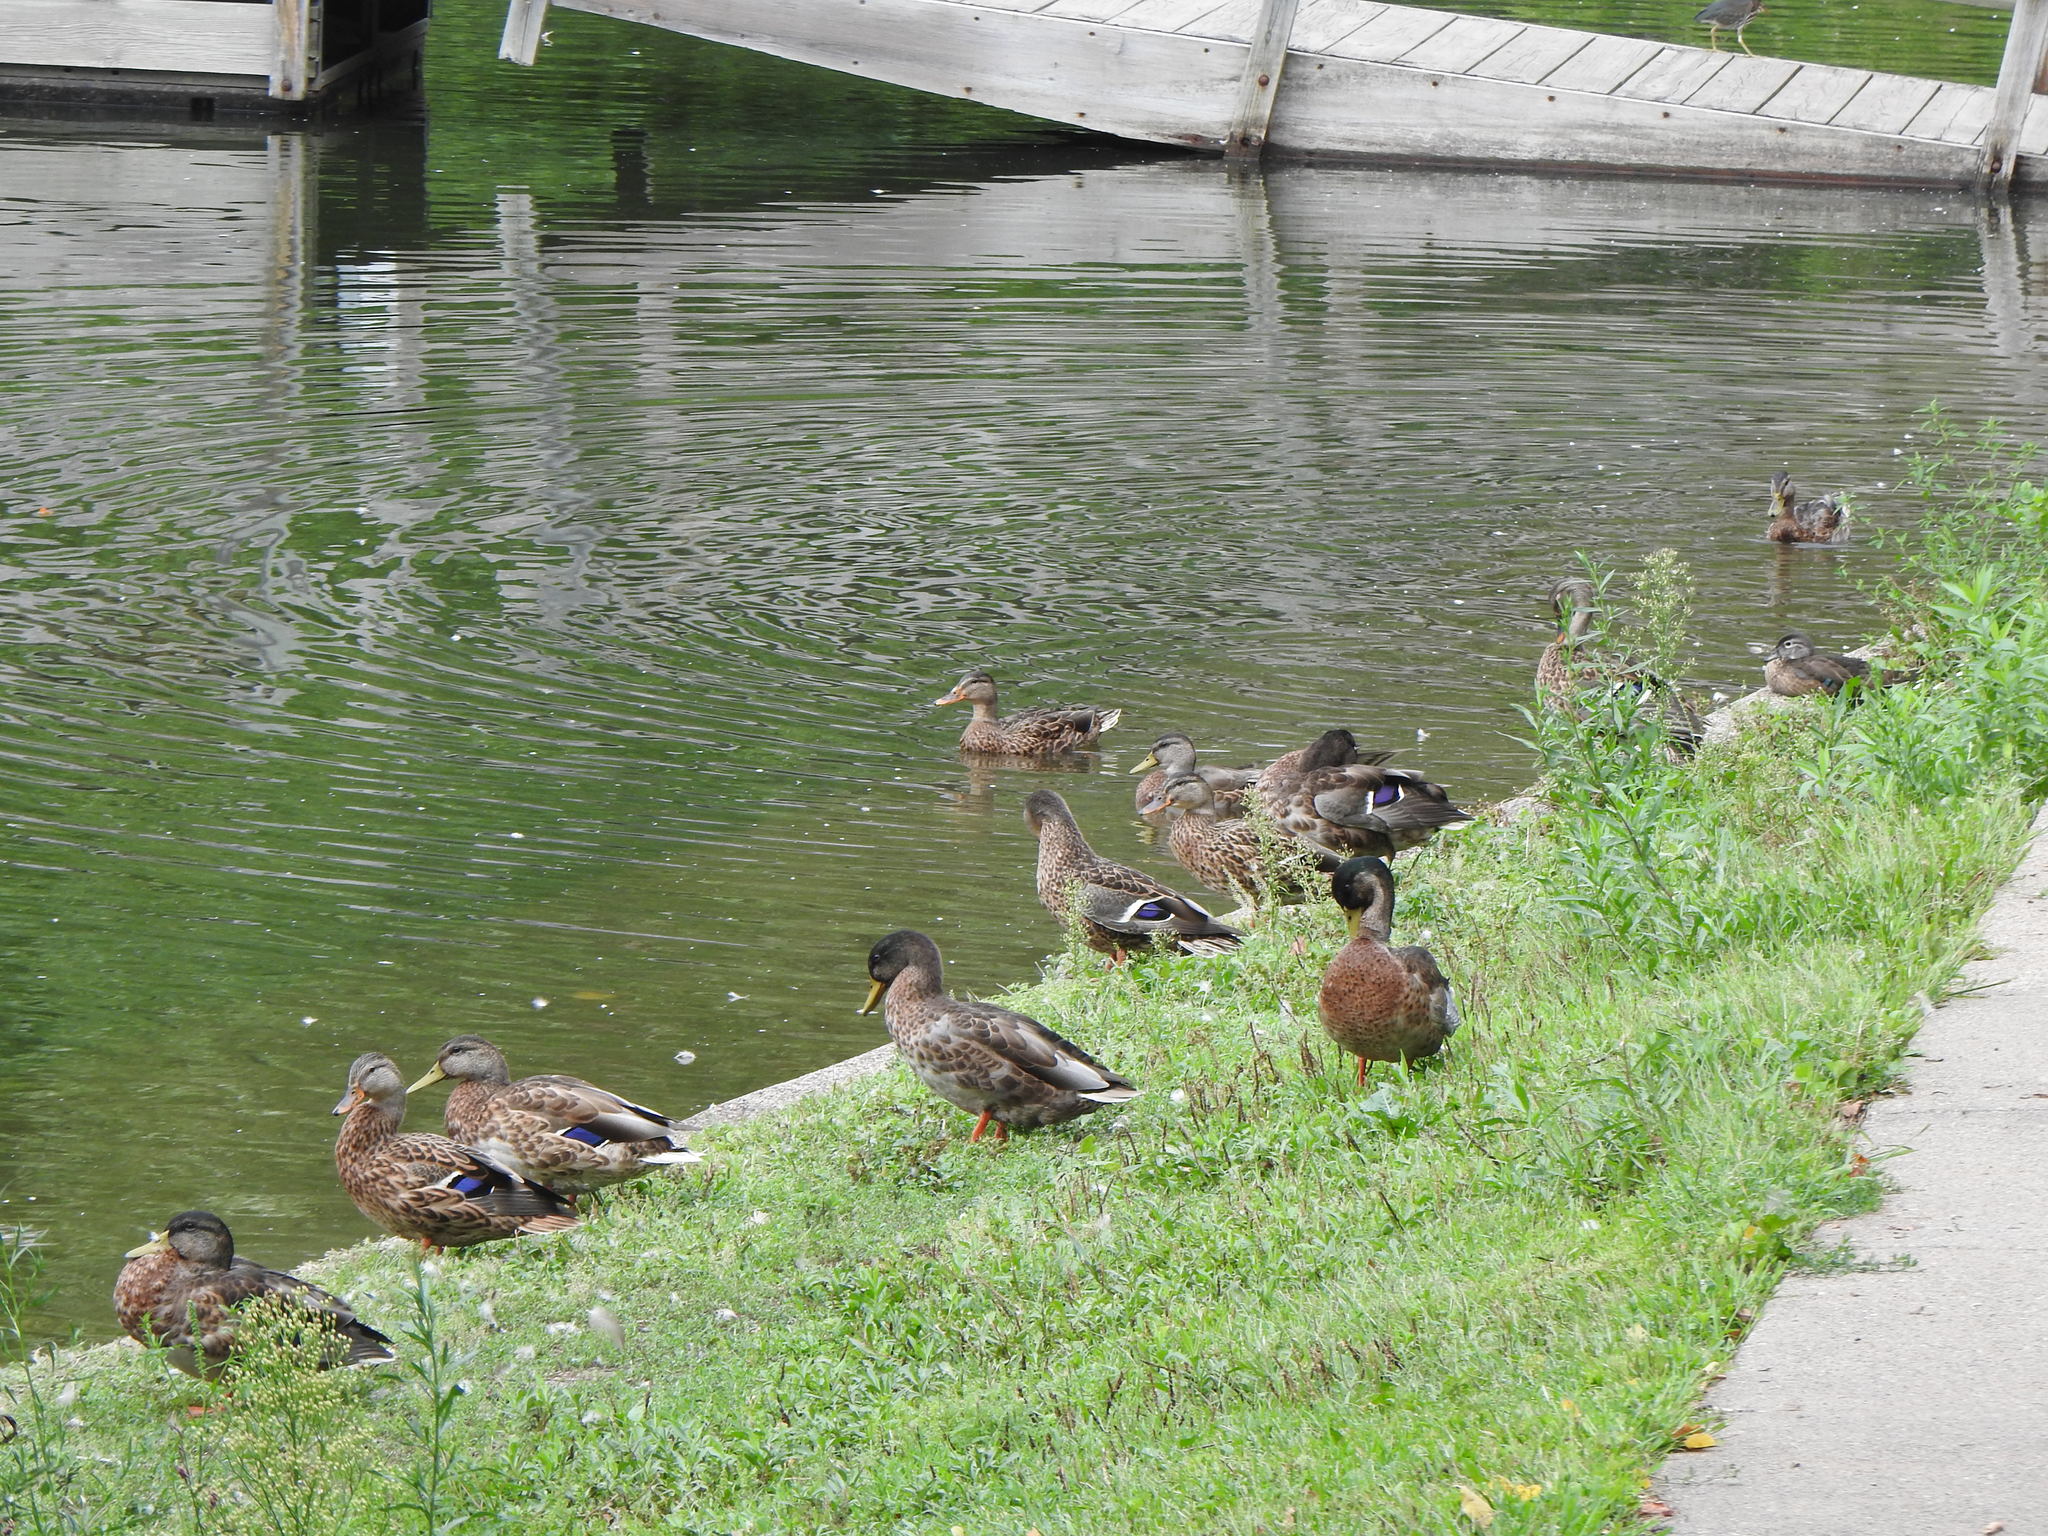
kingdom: Animalia
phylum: Chordata
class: Aves
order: Anseriformes
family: Anatidae
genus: Anas
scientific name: Anas platyrhynchos
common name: Mallard
